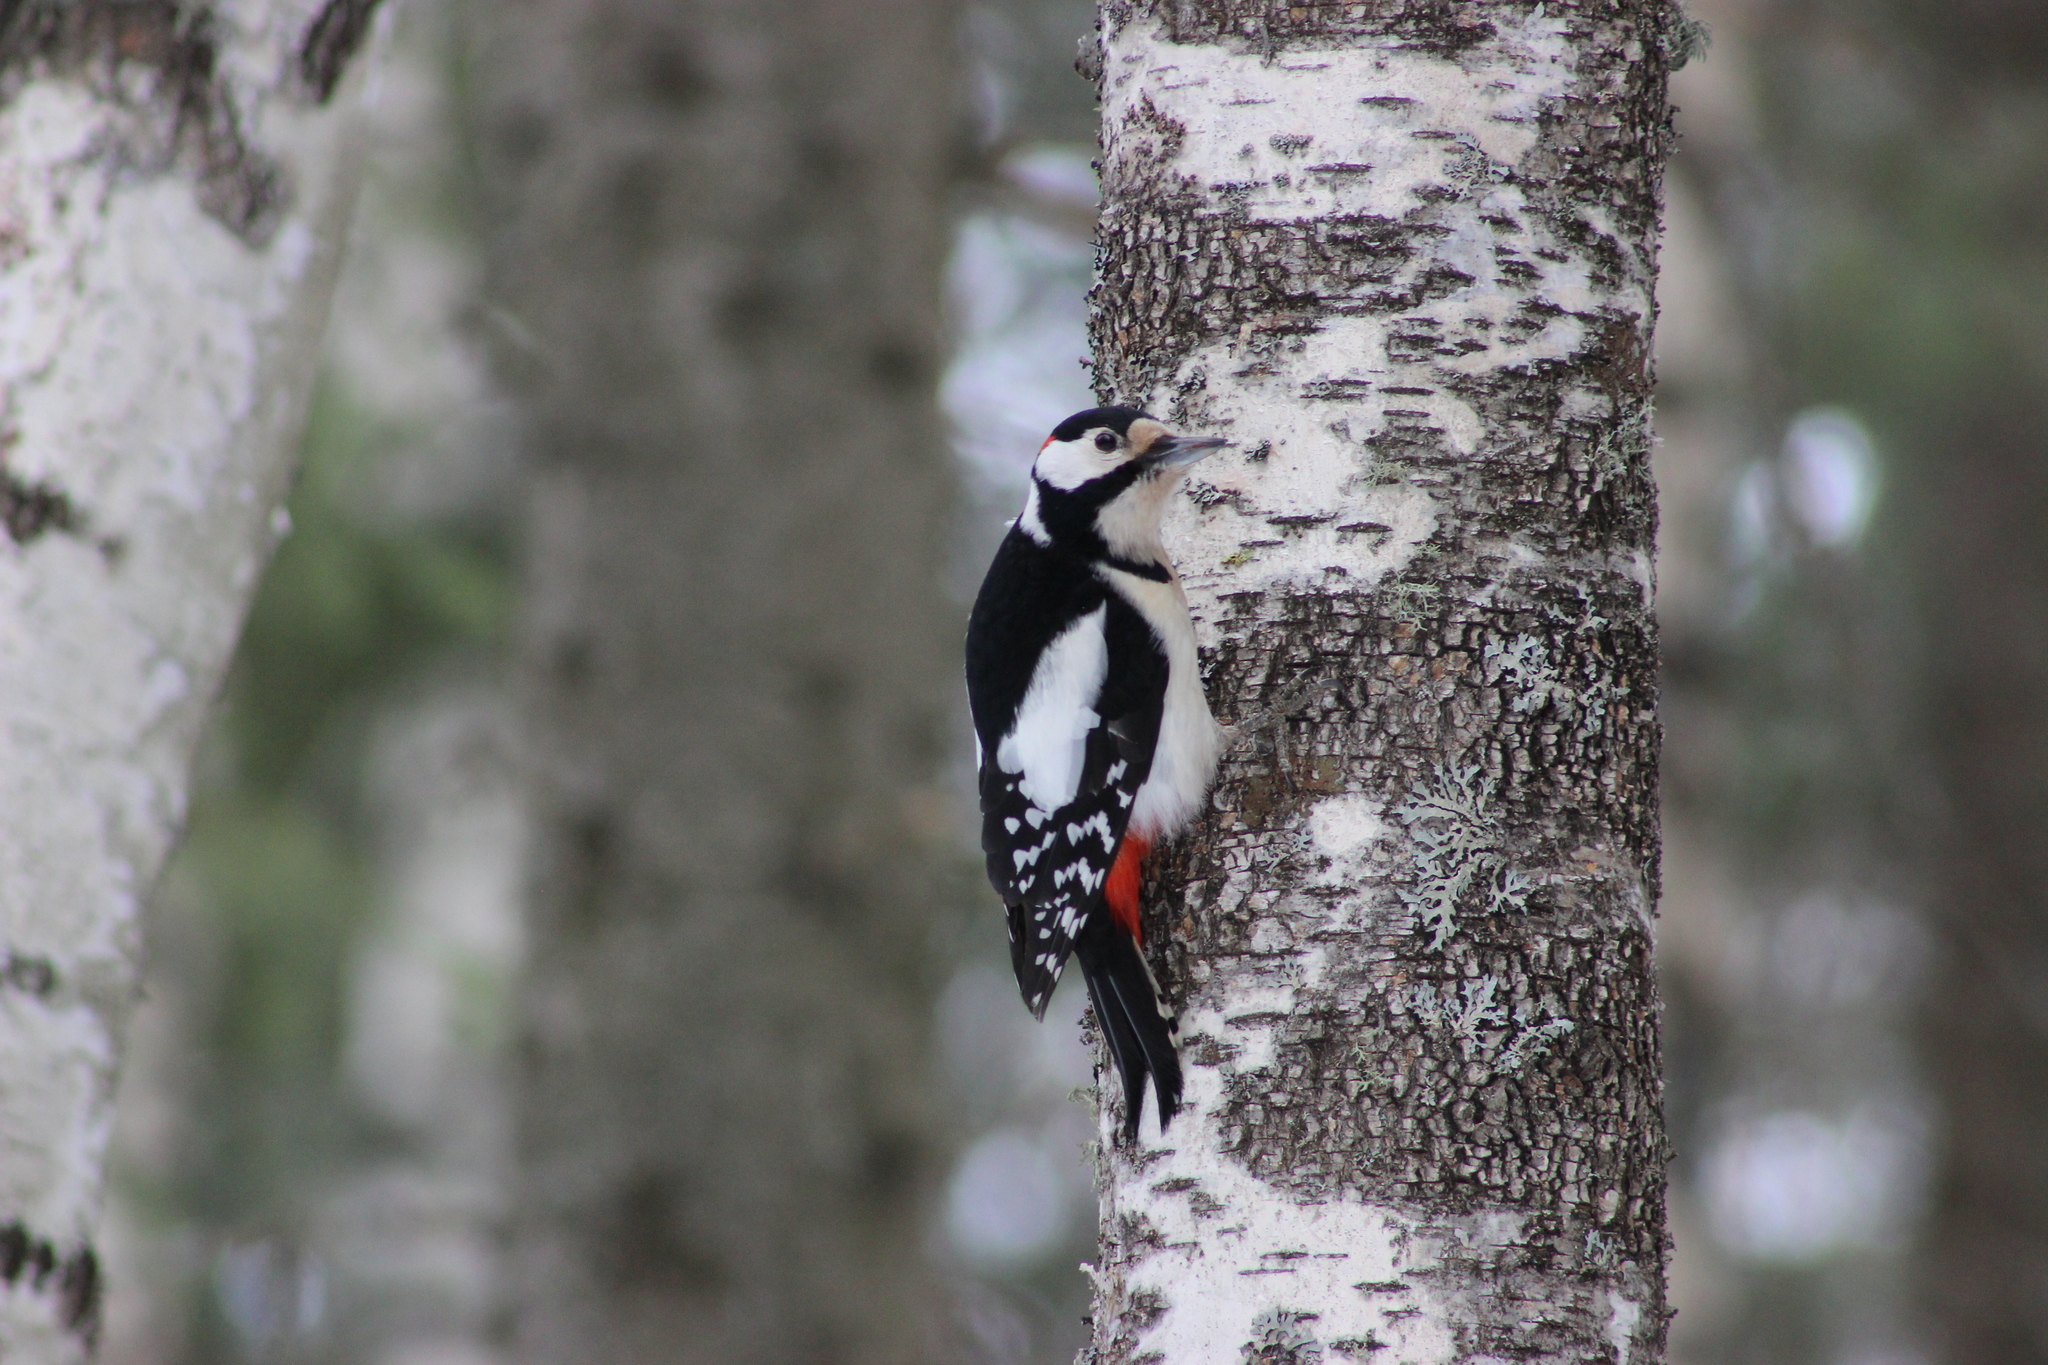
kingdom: Animalia
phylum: Chordata
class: Aves
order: Piciformes
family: Picidae
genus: Dendrocopos
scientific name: Dendrocopos major
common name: Great spotted woodpecker
